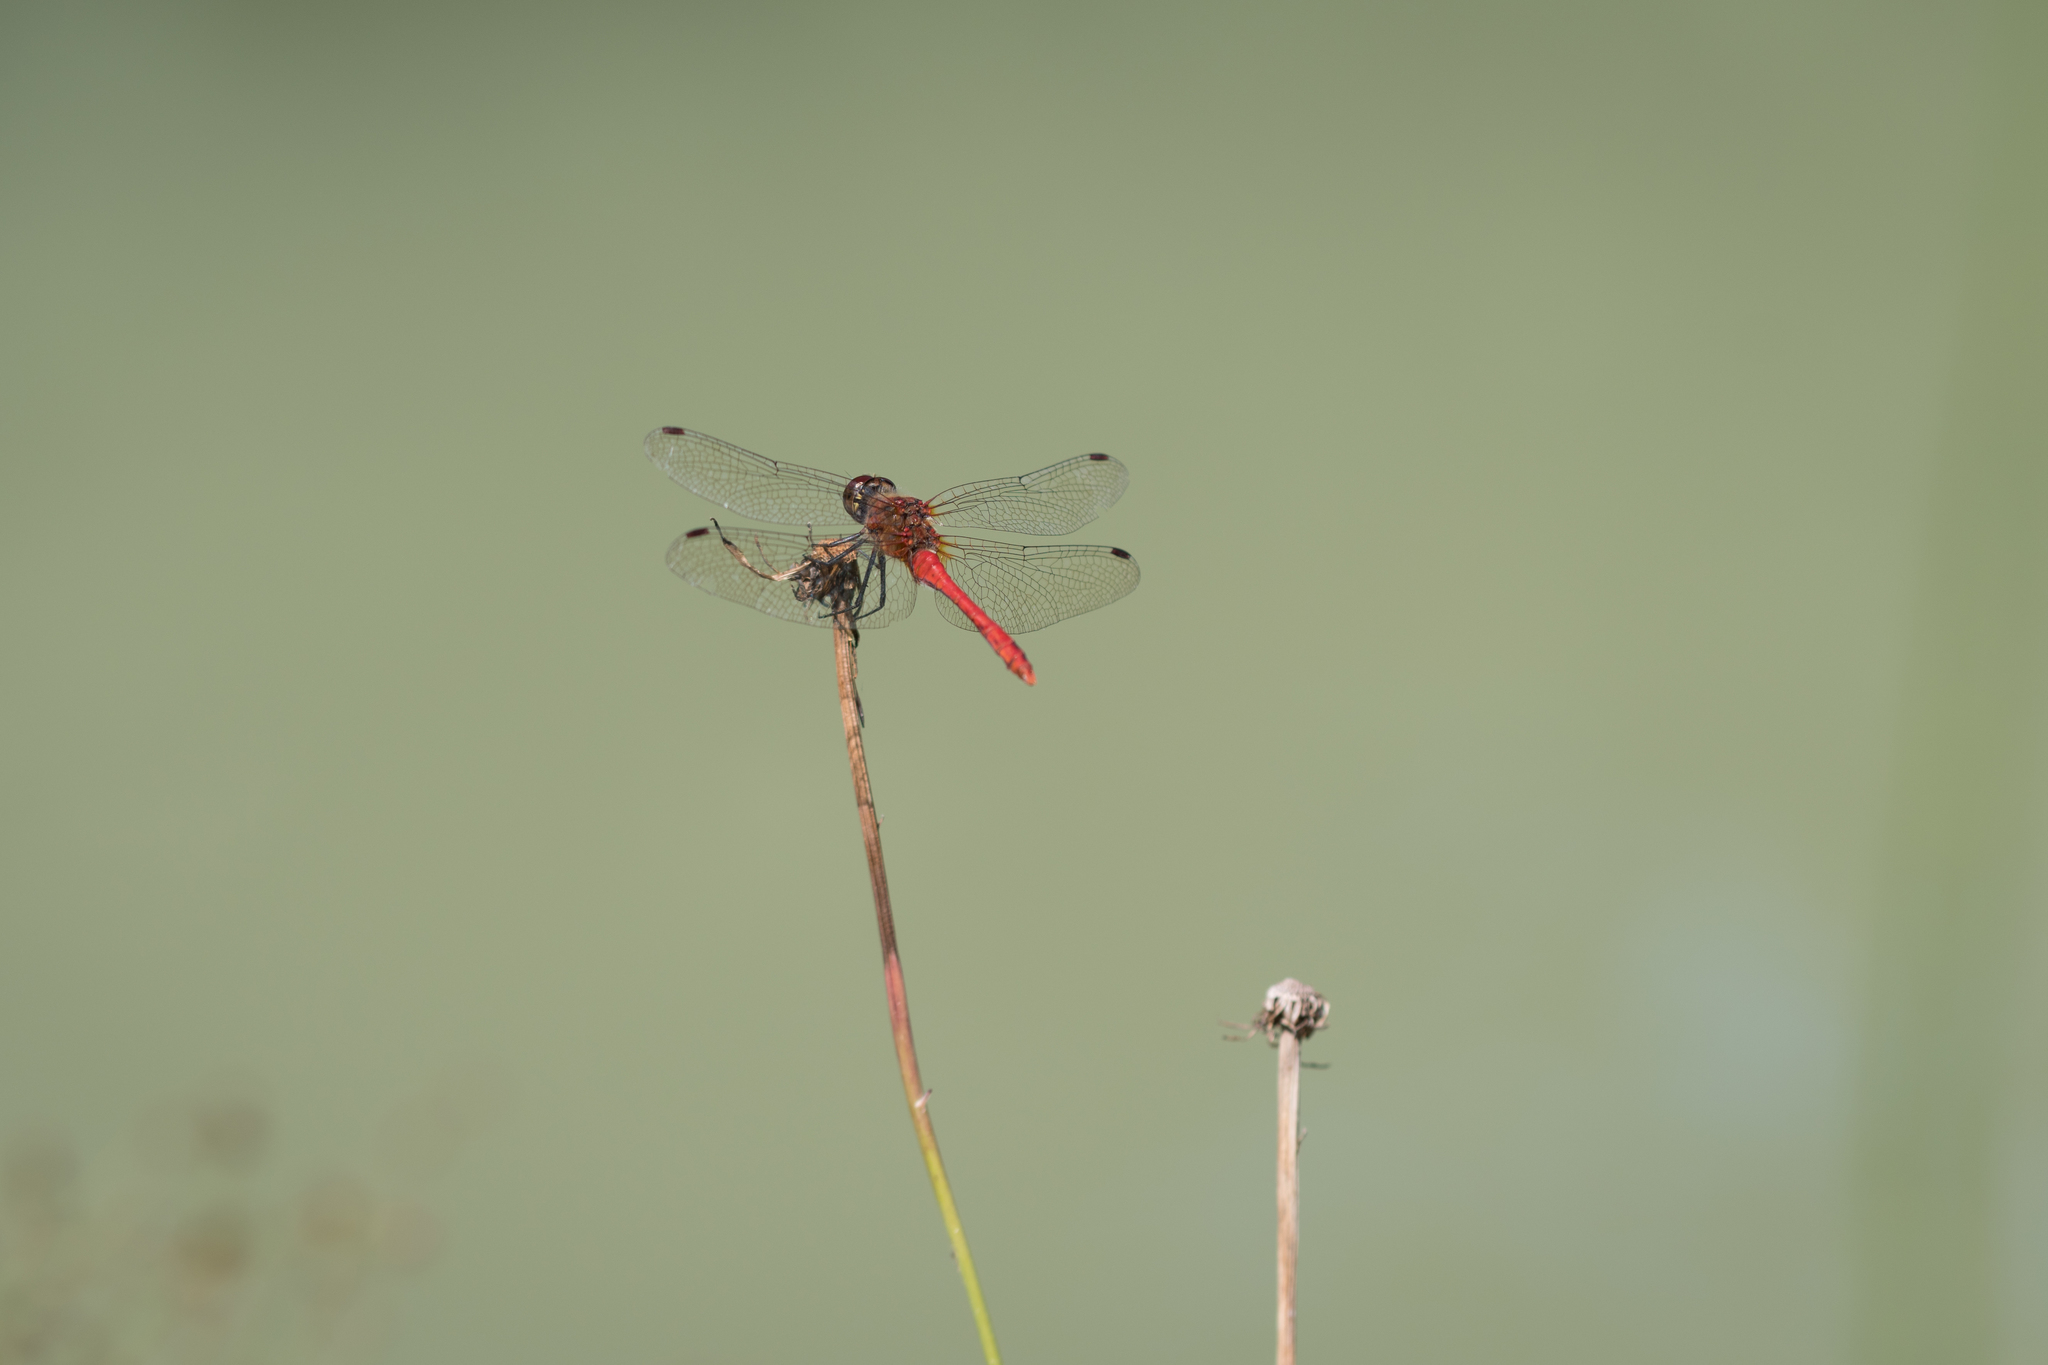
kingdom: Animalia
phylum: Arthropoda
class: Insecta
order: Odonata
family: Libellulidae
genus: Sympetrum
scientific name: Sympetrum sanguineum
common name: Ruddy darter
